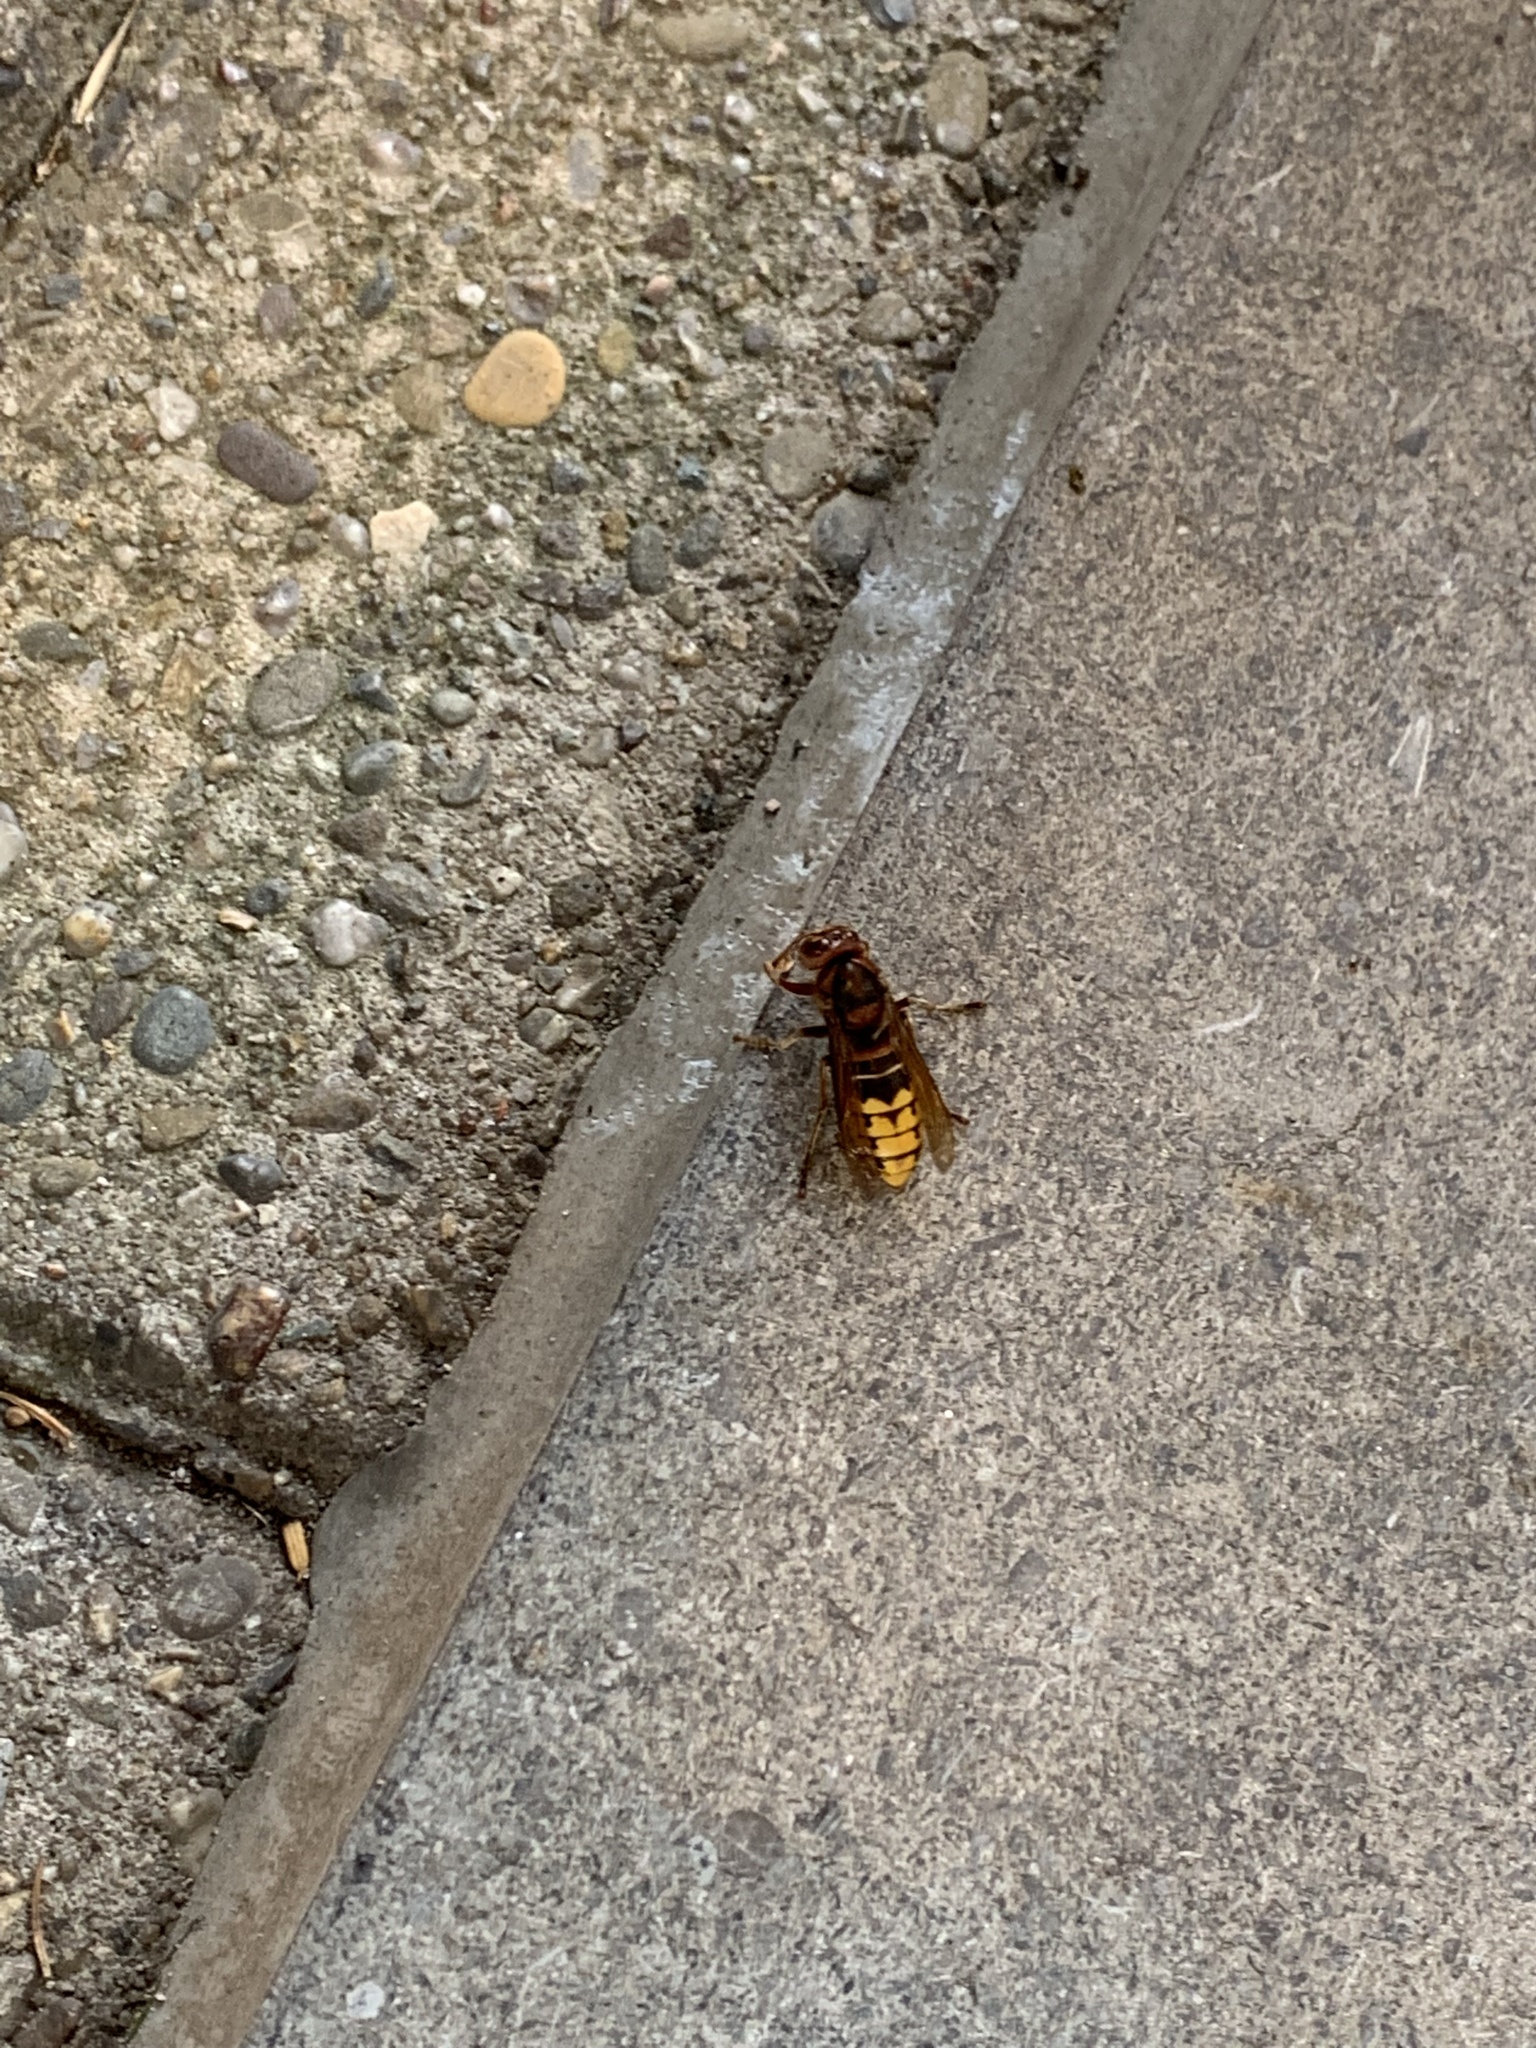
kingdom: Animalia
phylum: Arthropoda
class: Insecta
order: Hymenoptera
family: Vespidae
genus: Vespa
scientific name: Vespa crabro
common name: Hornet
